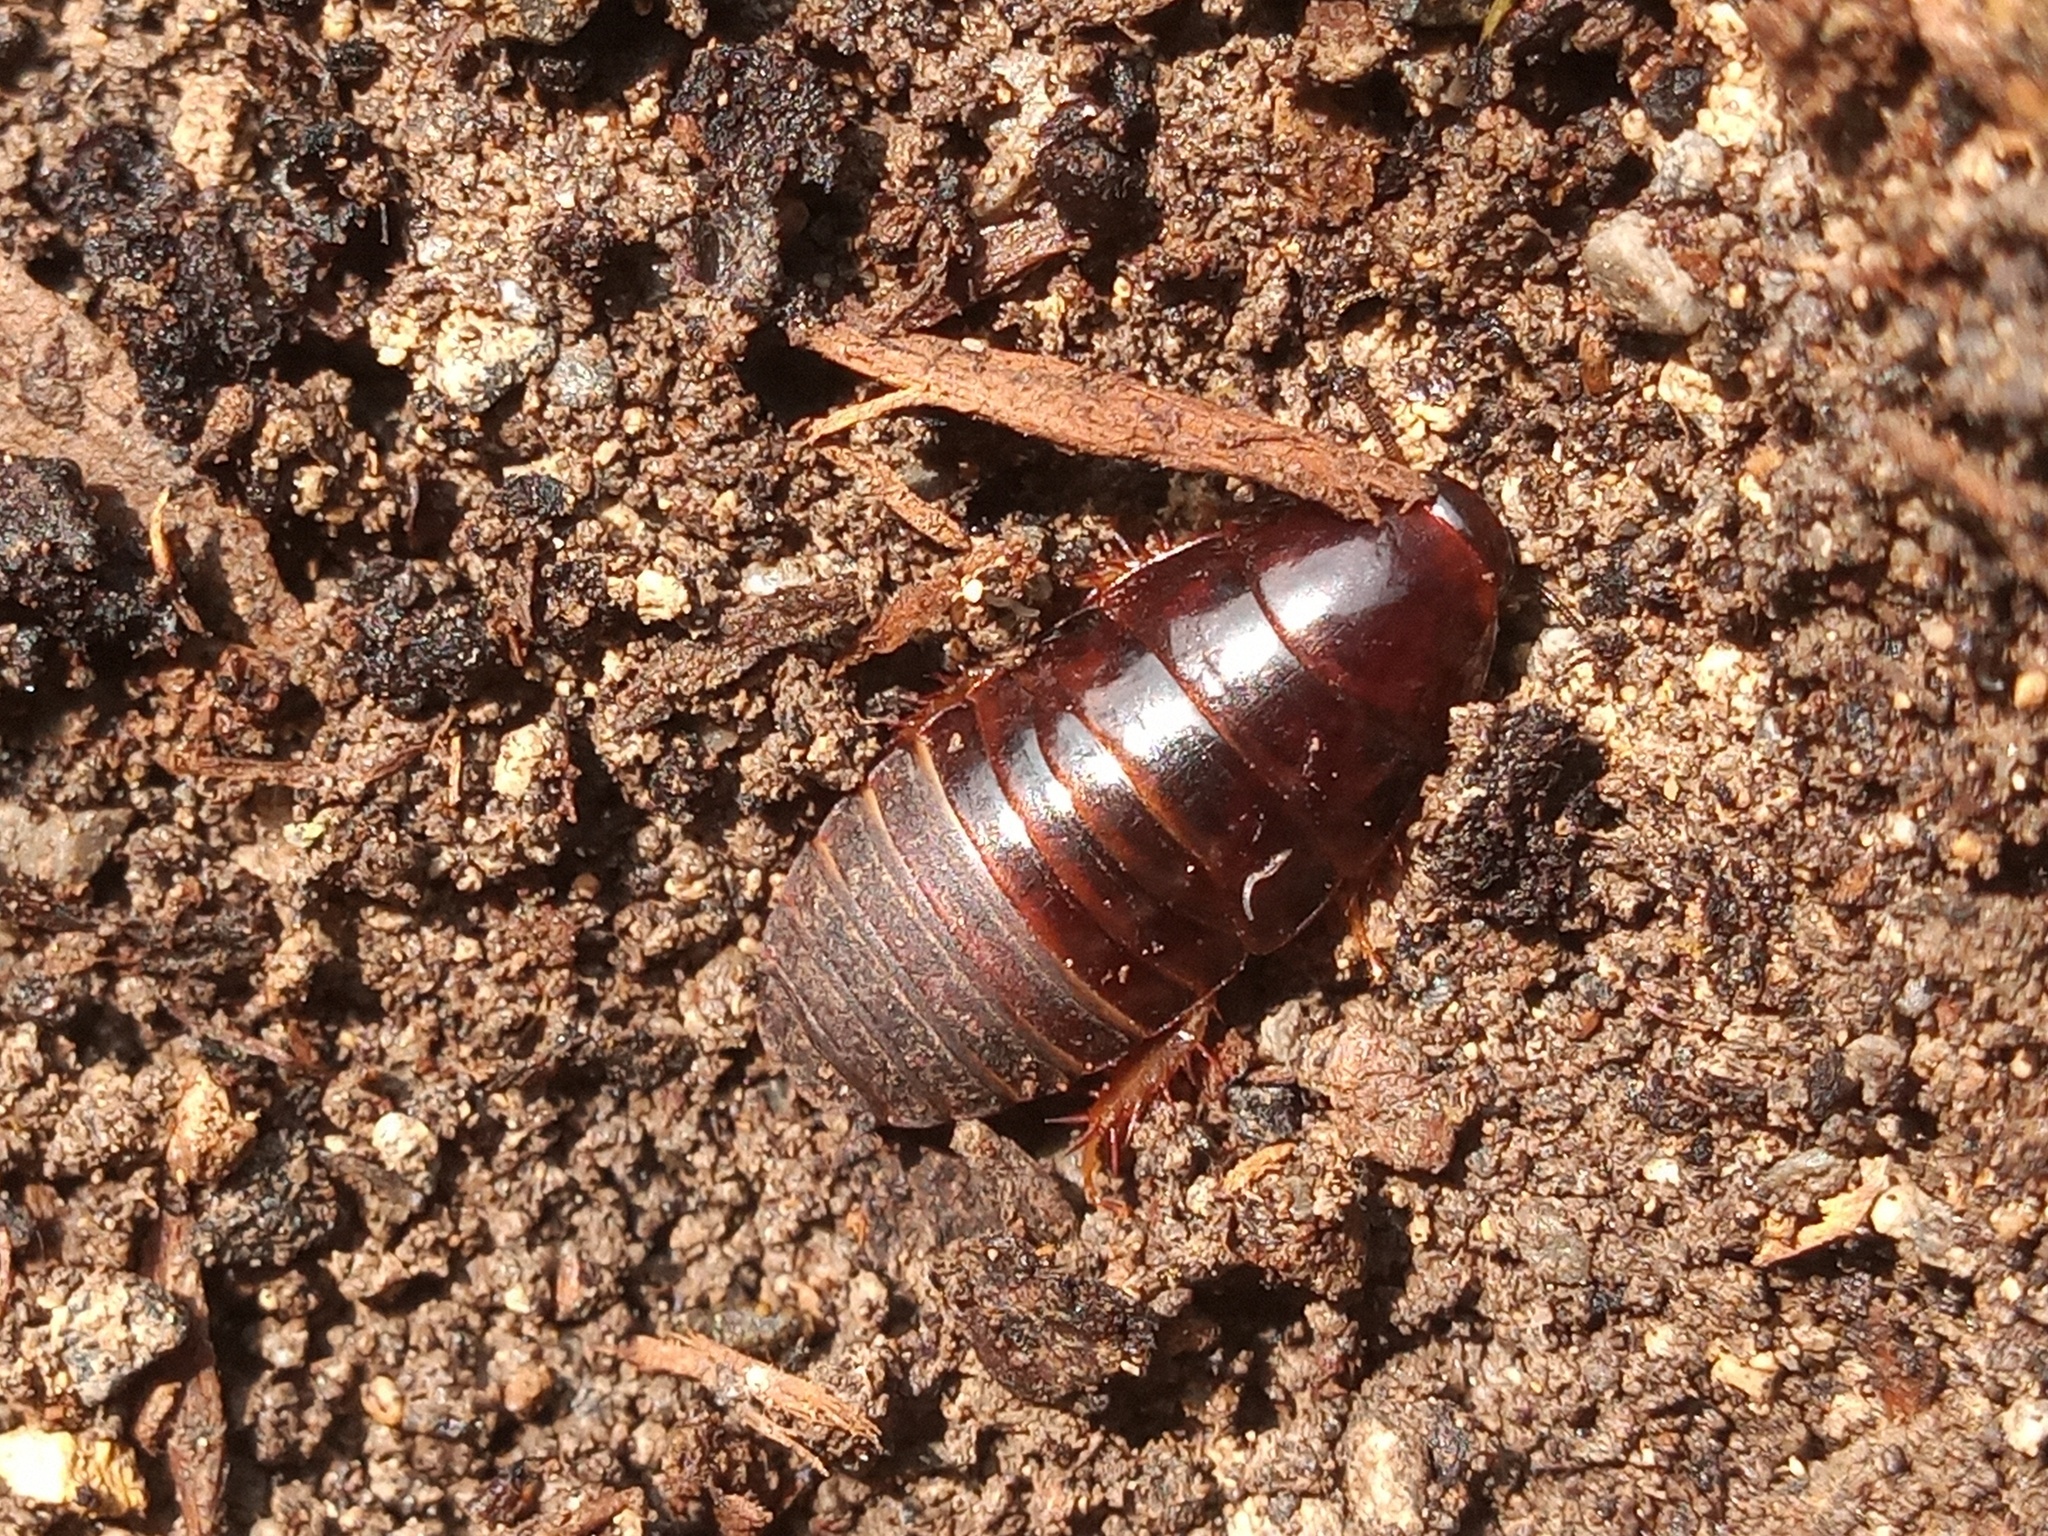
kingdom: Animalia
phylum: Arthropoda
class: Insecta
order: Blattodea
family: Blaberidae
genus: Pycnoscelus
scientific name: Pycnoscelus surinamensis
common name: Surinam cockroach
